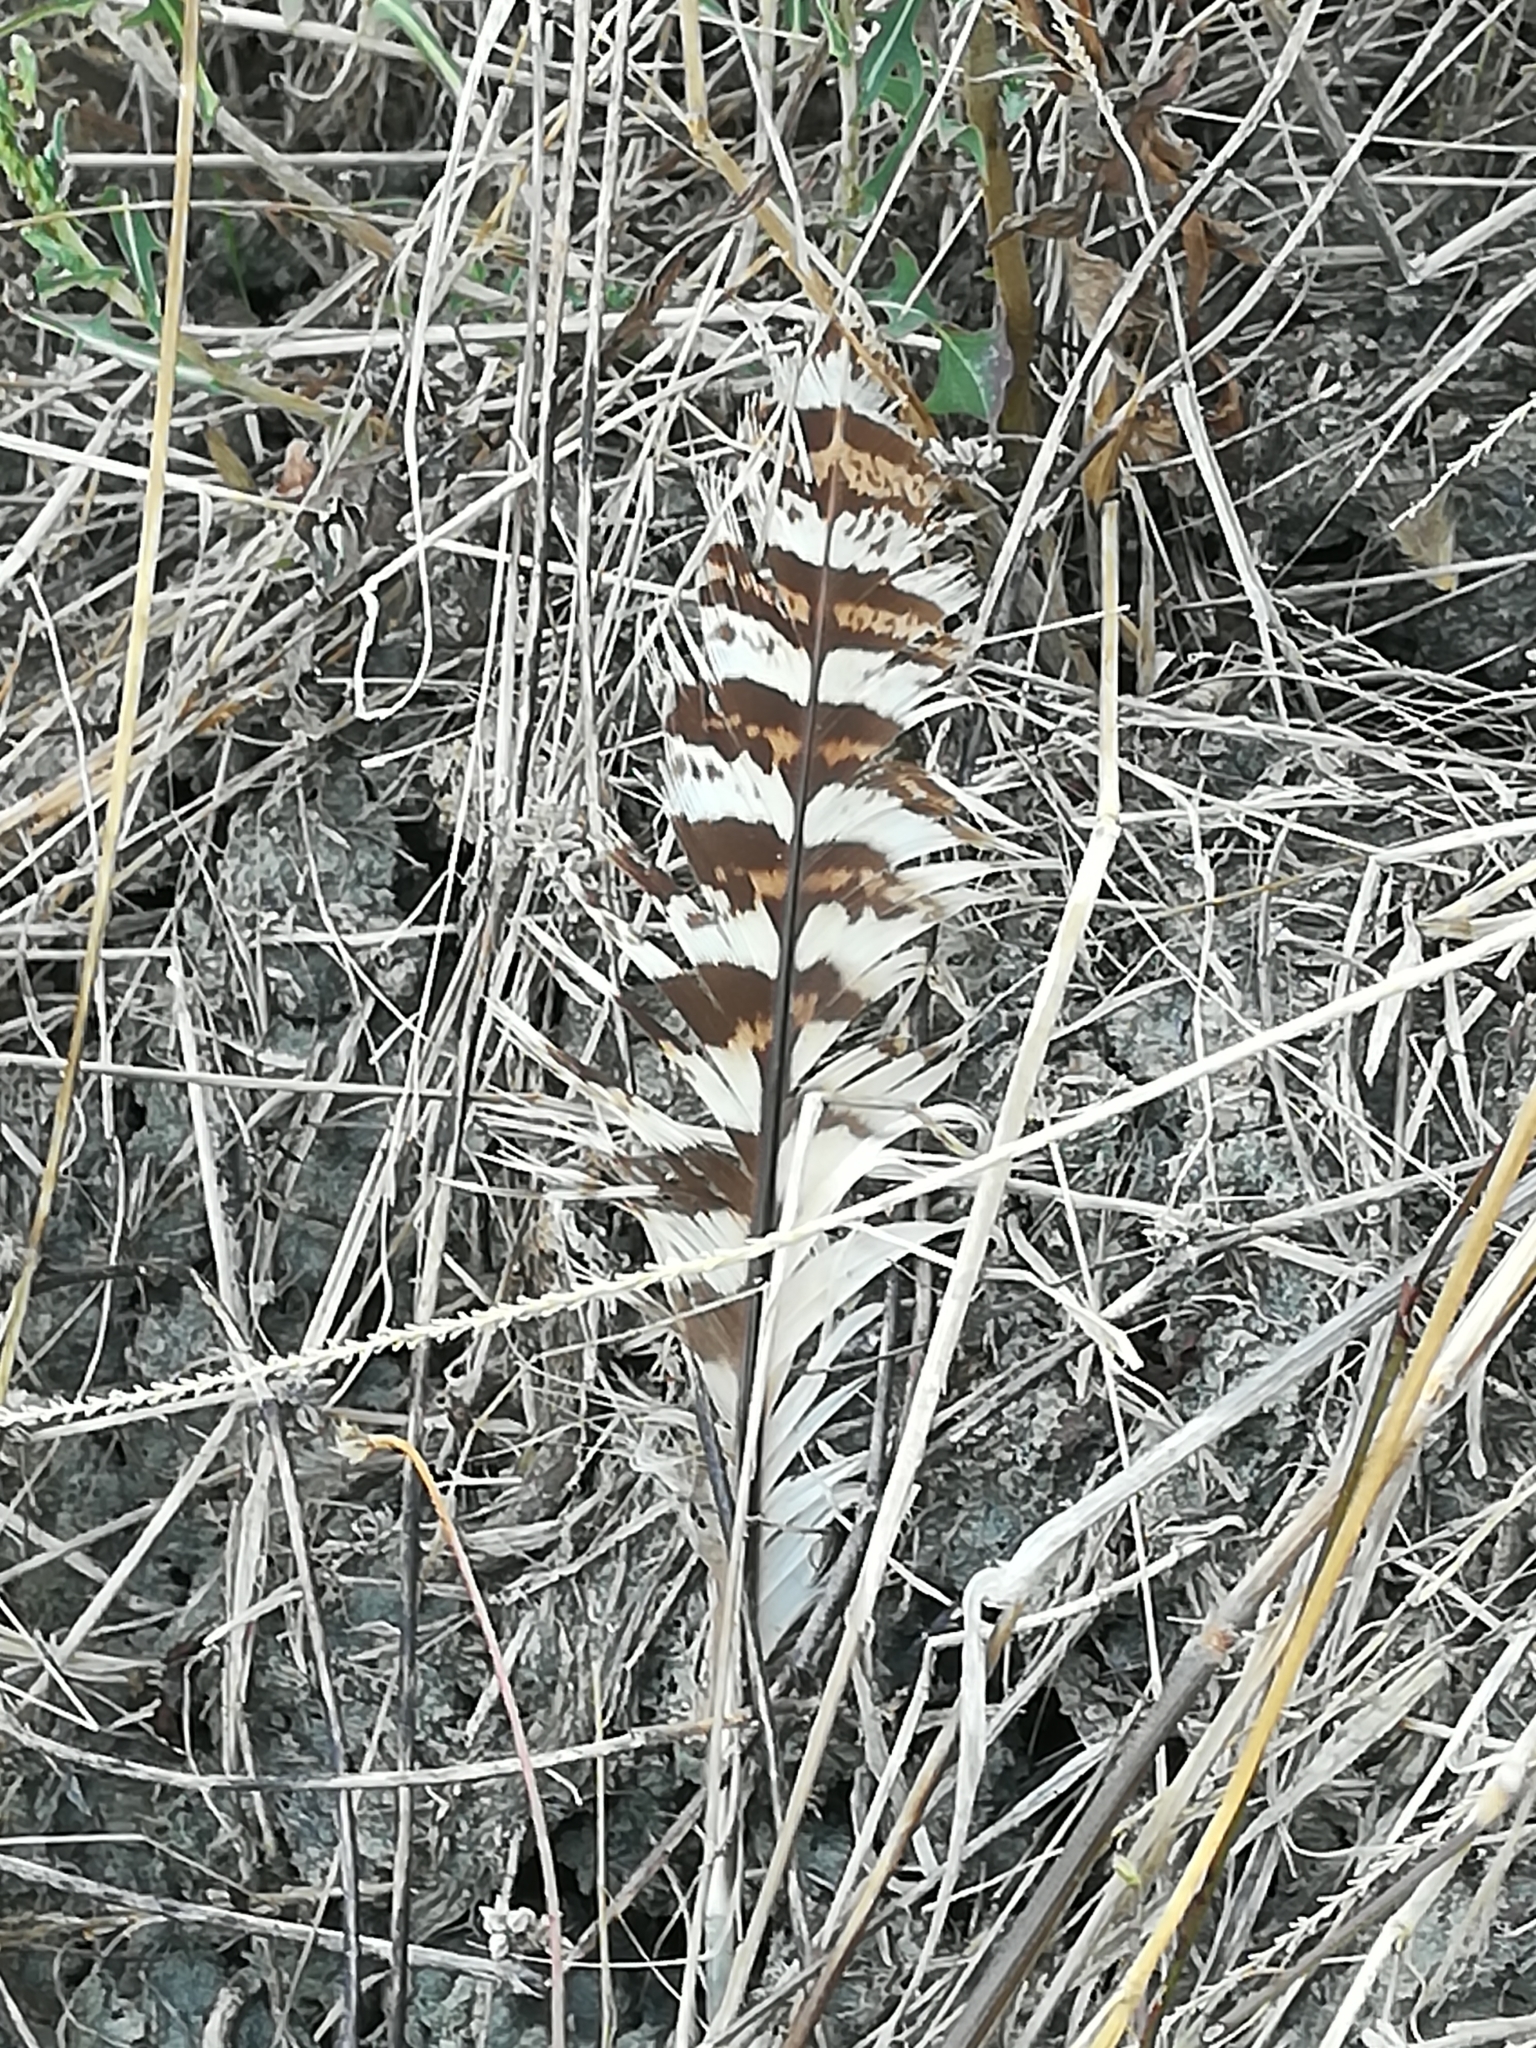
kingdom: Animalia
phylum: Chordata
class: Aves
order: Galliformes
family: Phasianidae
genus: Phasianus
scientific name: Phasianus colchicus
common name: Common pheasant
